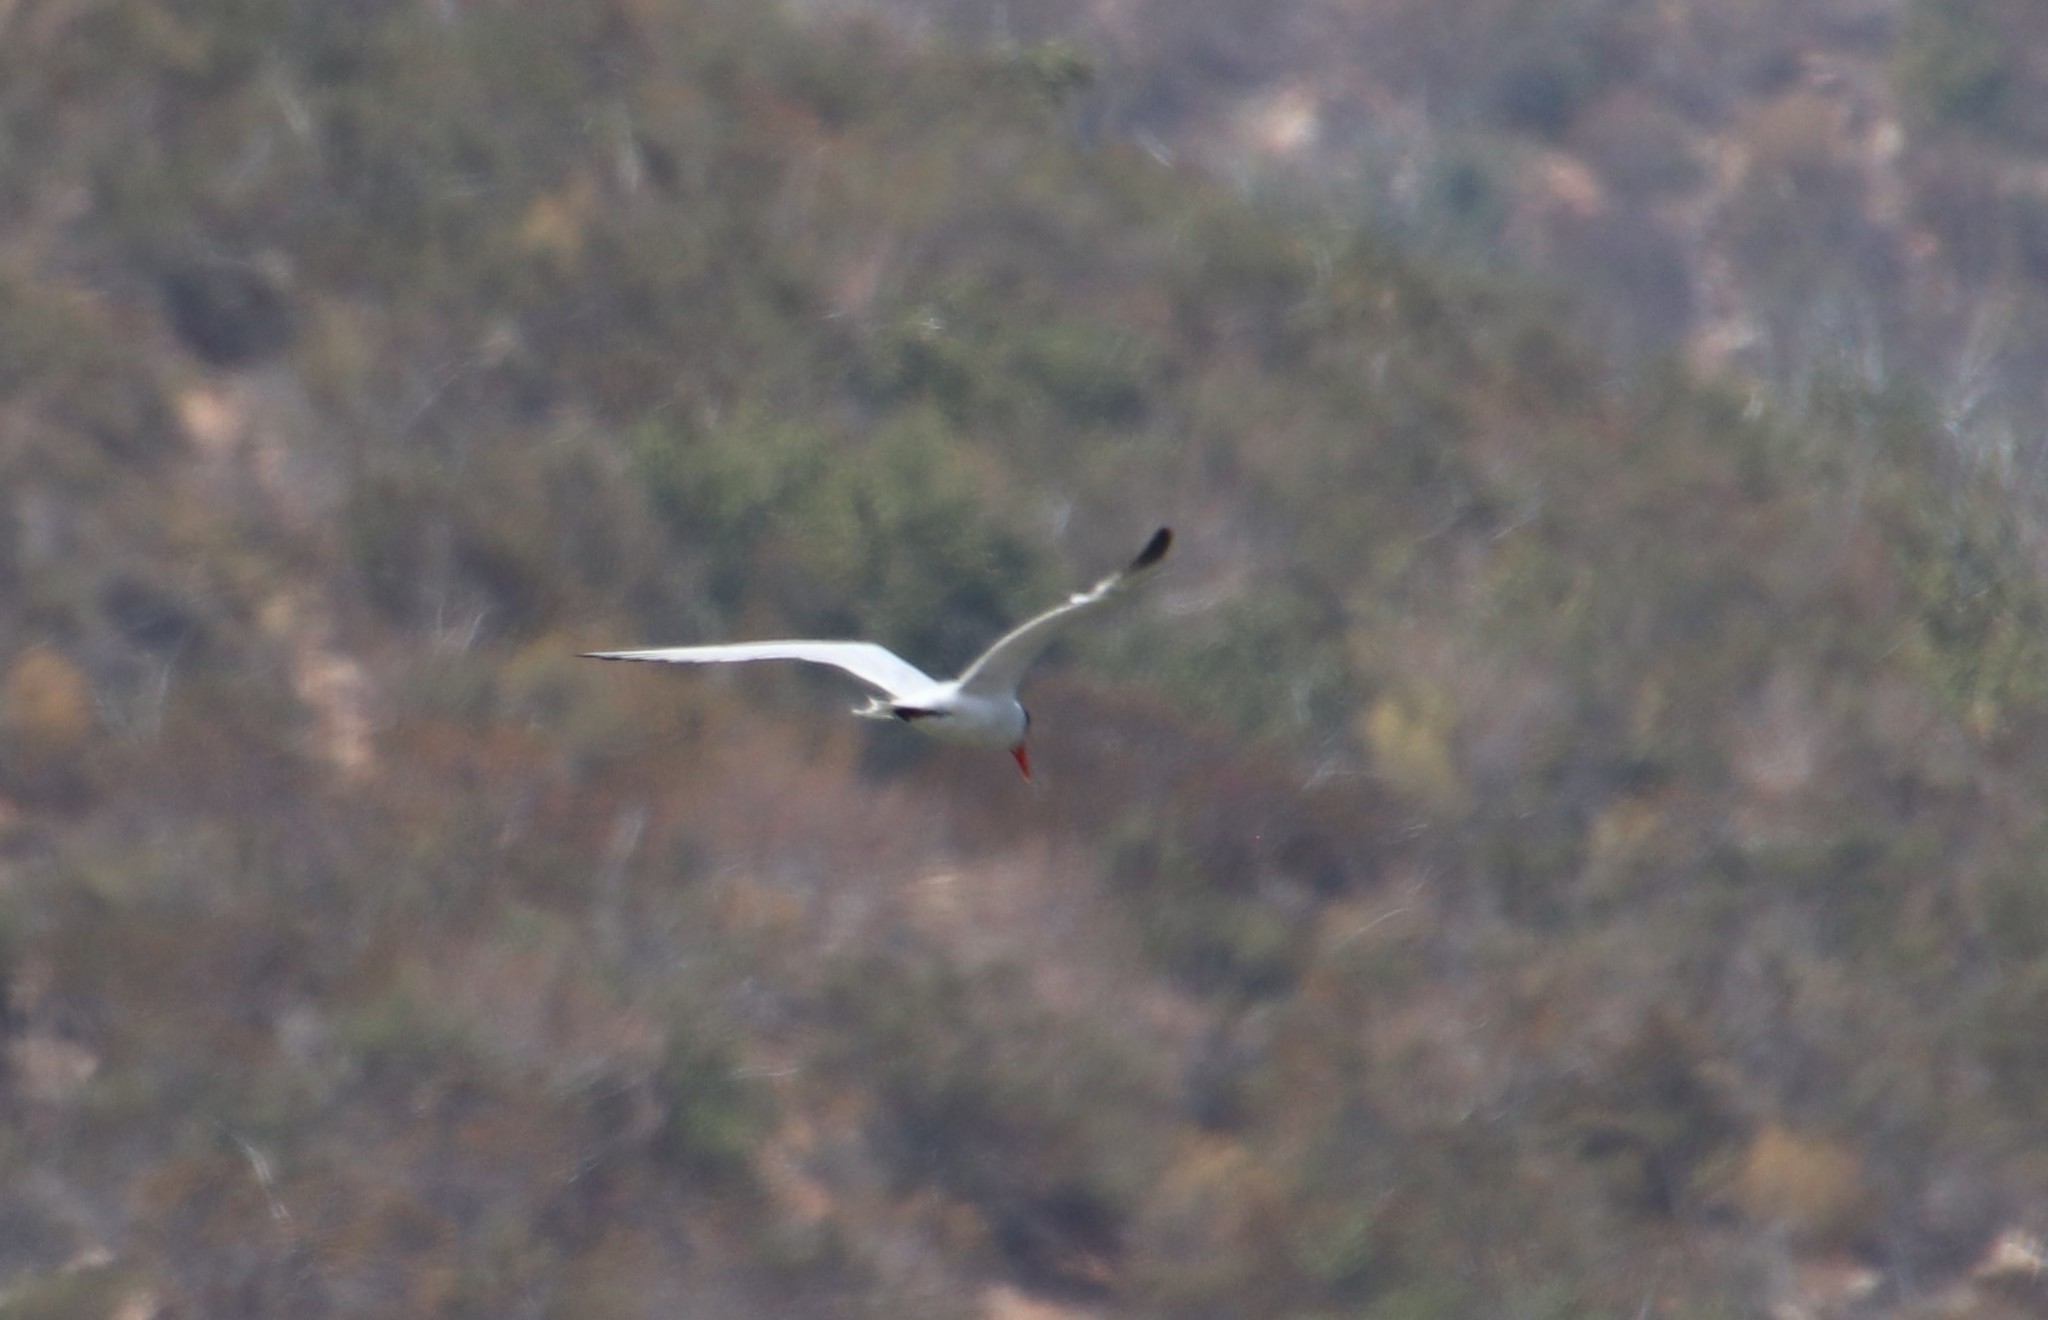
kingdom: Animalia
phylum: Chordata
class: Aves
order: Charadriiformes
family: Laridae
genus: Hydroprogne
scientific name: Hydroprogne caspia
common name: Caspian tern
